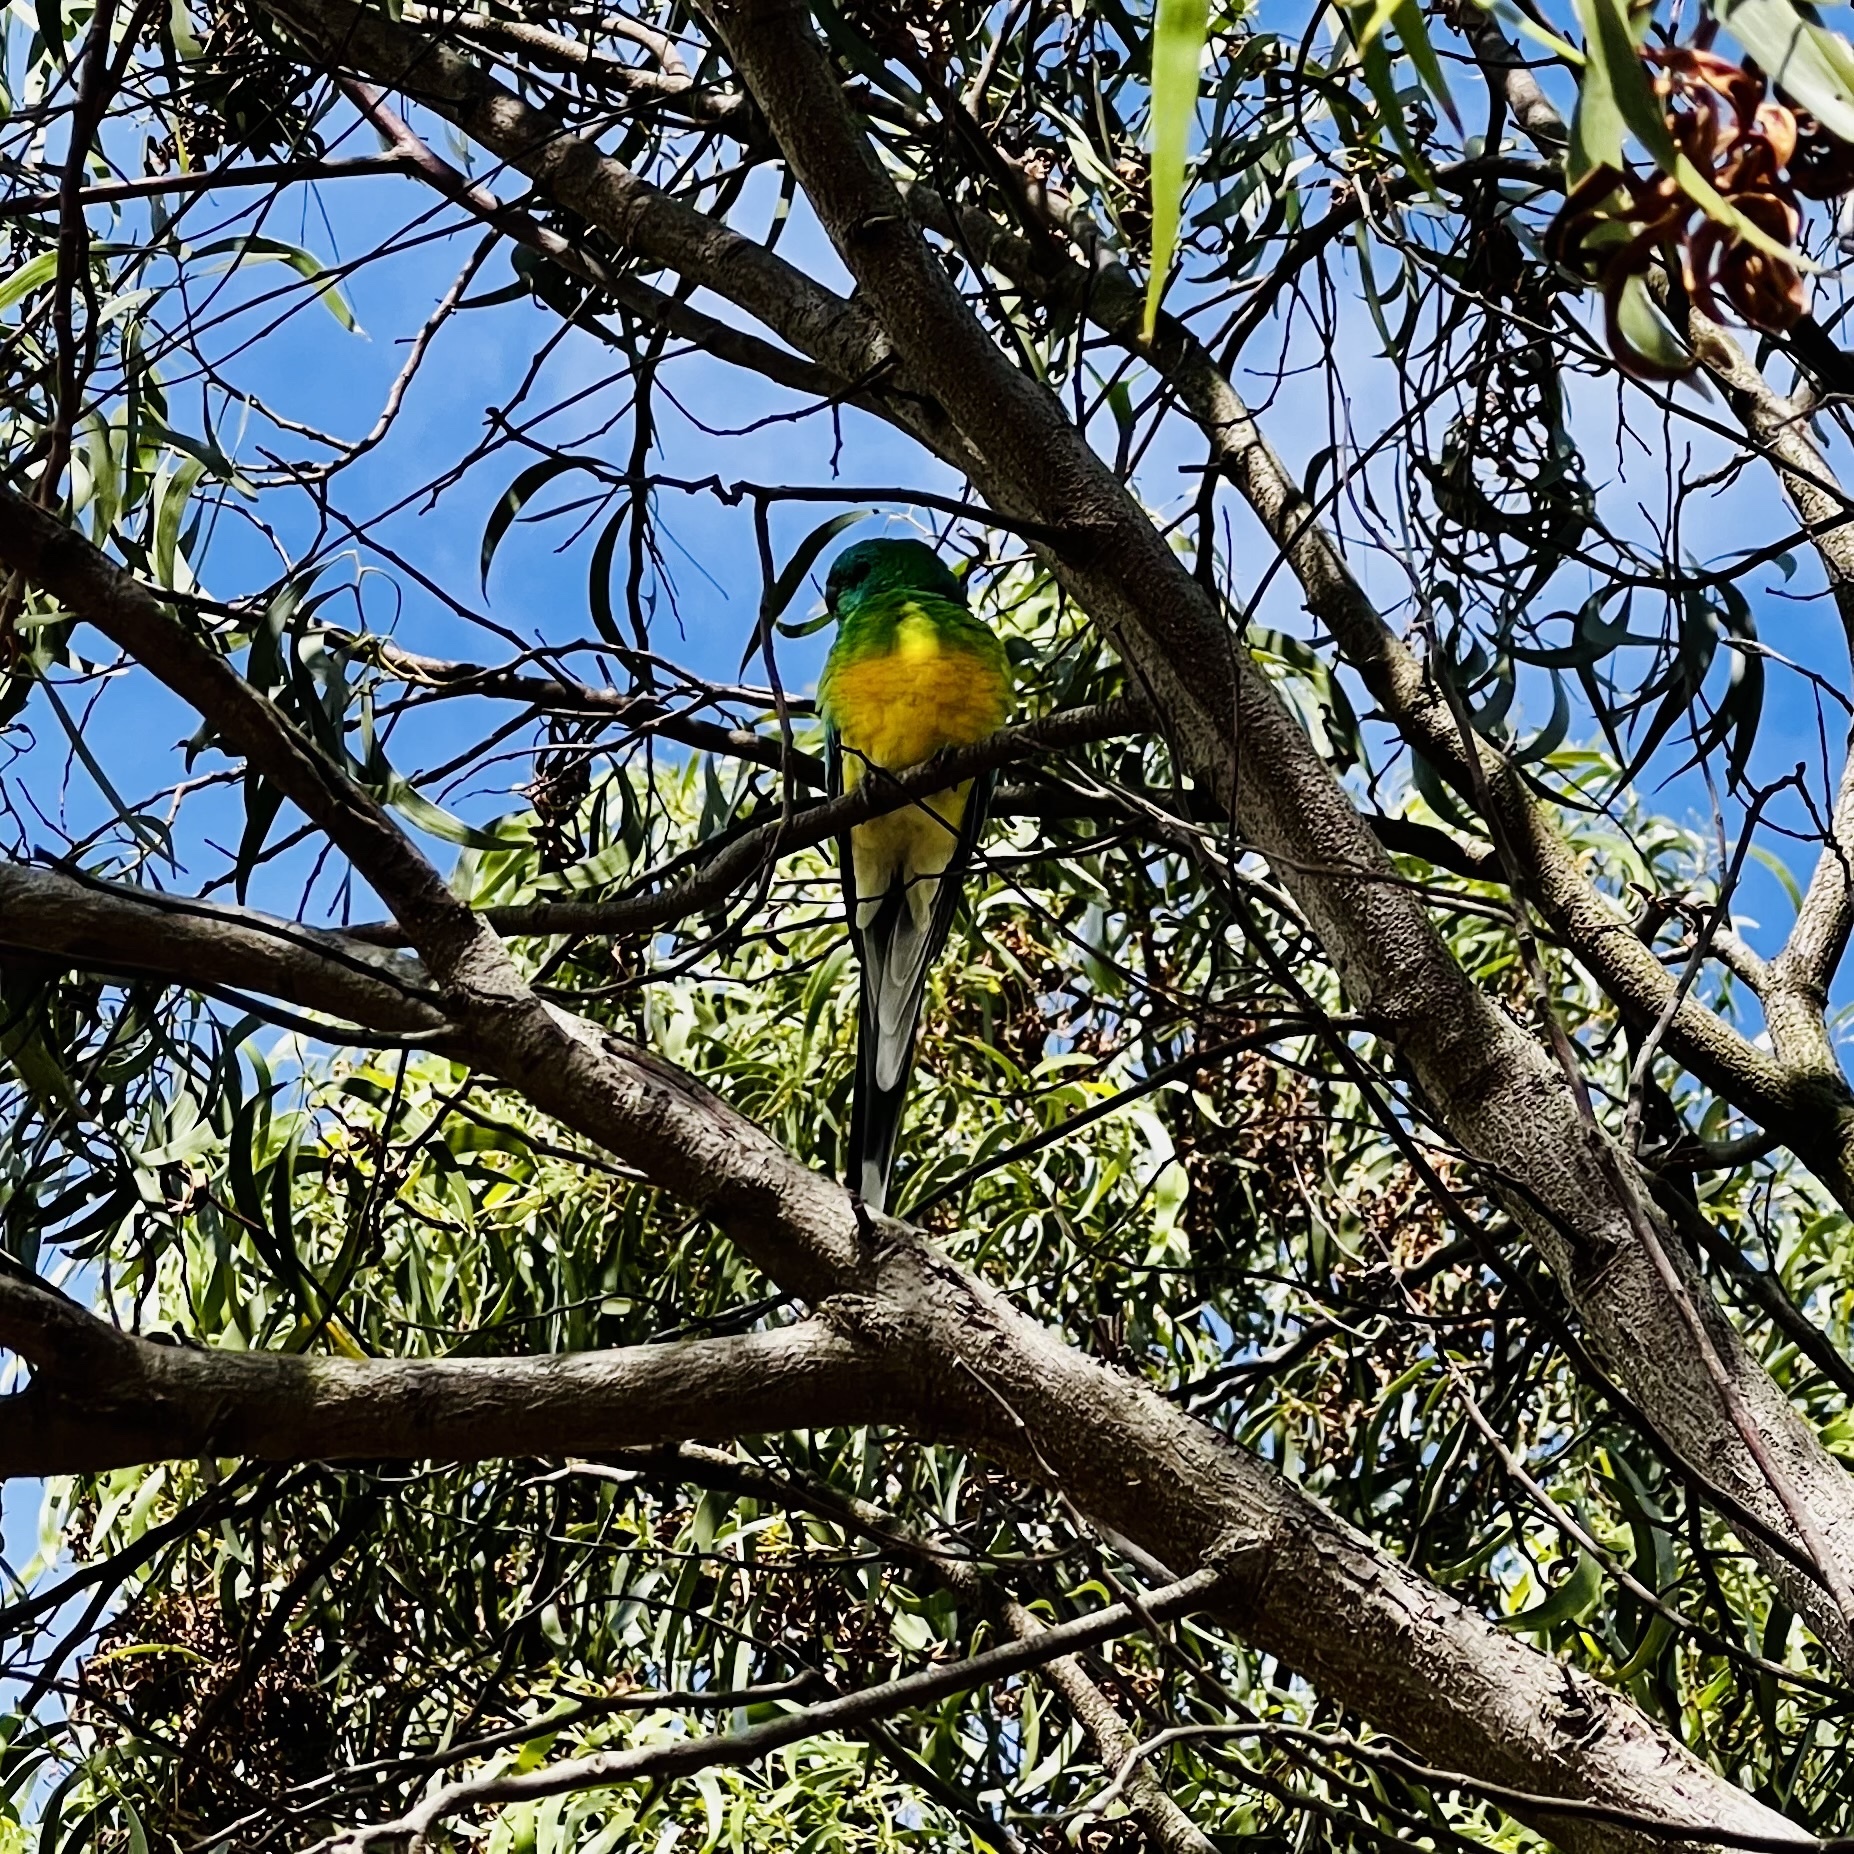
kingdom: Animalia
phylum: Chordata
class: Aves
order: Psittaciformes
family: Psittacidae
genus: Psephotus
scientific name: Psephotus haematonotus
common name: Red-rumped parrot
